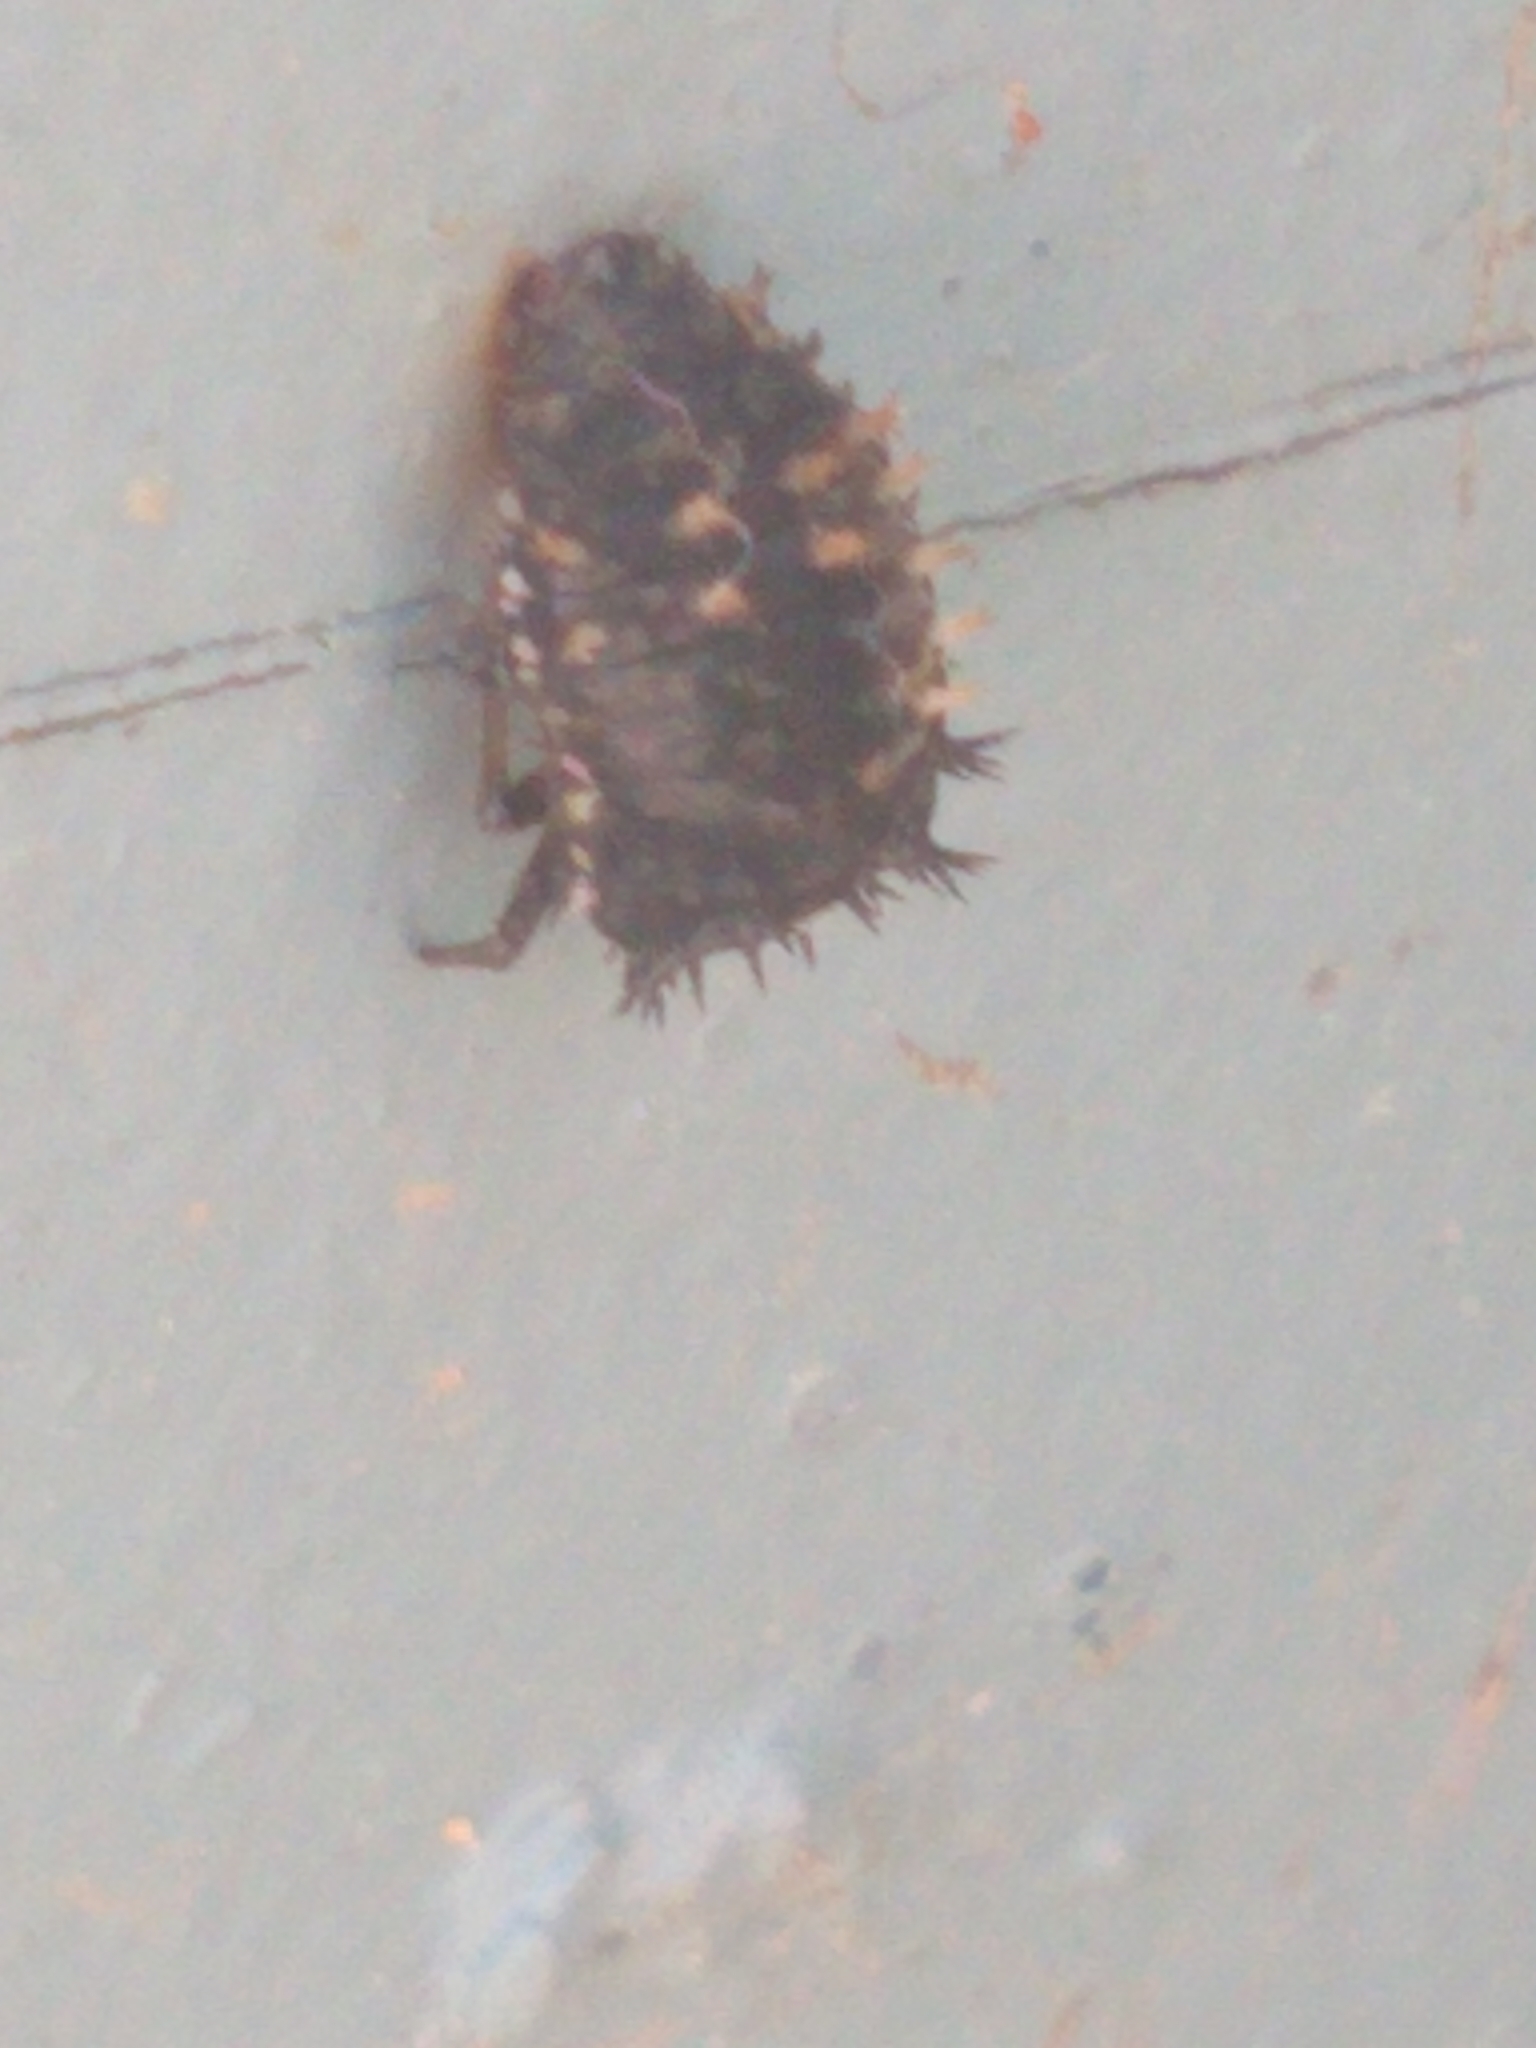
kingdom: Animalia
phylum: Arthropoda
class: Insecta
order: Coleoptera
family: Coccinellidae
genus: Harmonia
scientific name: Harmonia axyridis
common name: Harlequin ladybird
